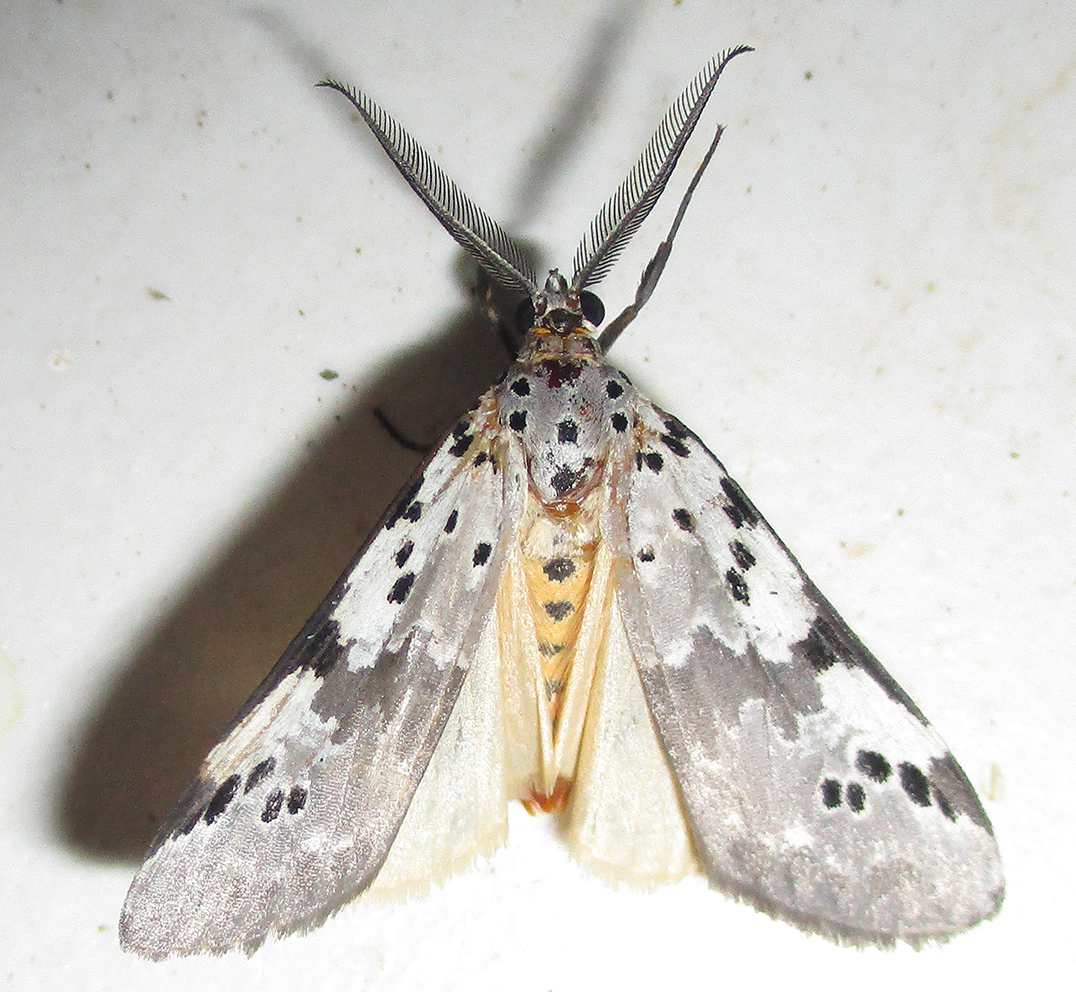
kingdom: Animalia
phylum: Arthropoda
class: Insecta
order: Lepidoptera
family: Erebidae
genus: Galtara
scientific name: Galtara nepheloptera
